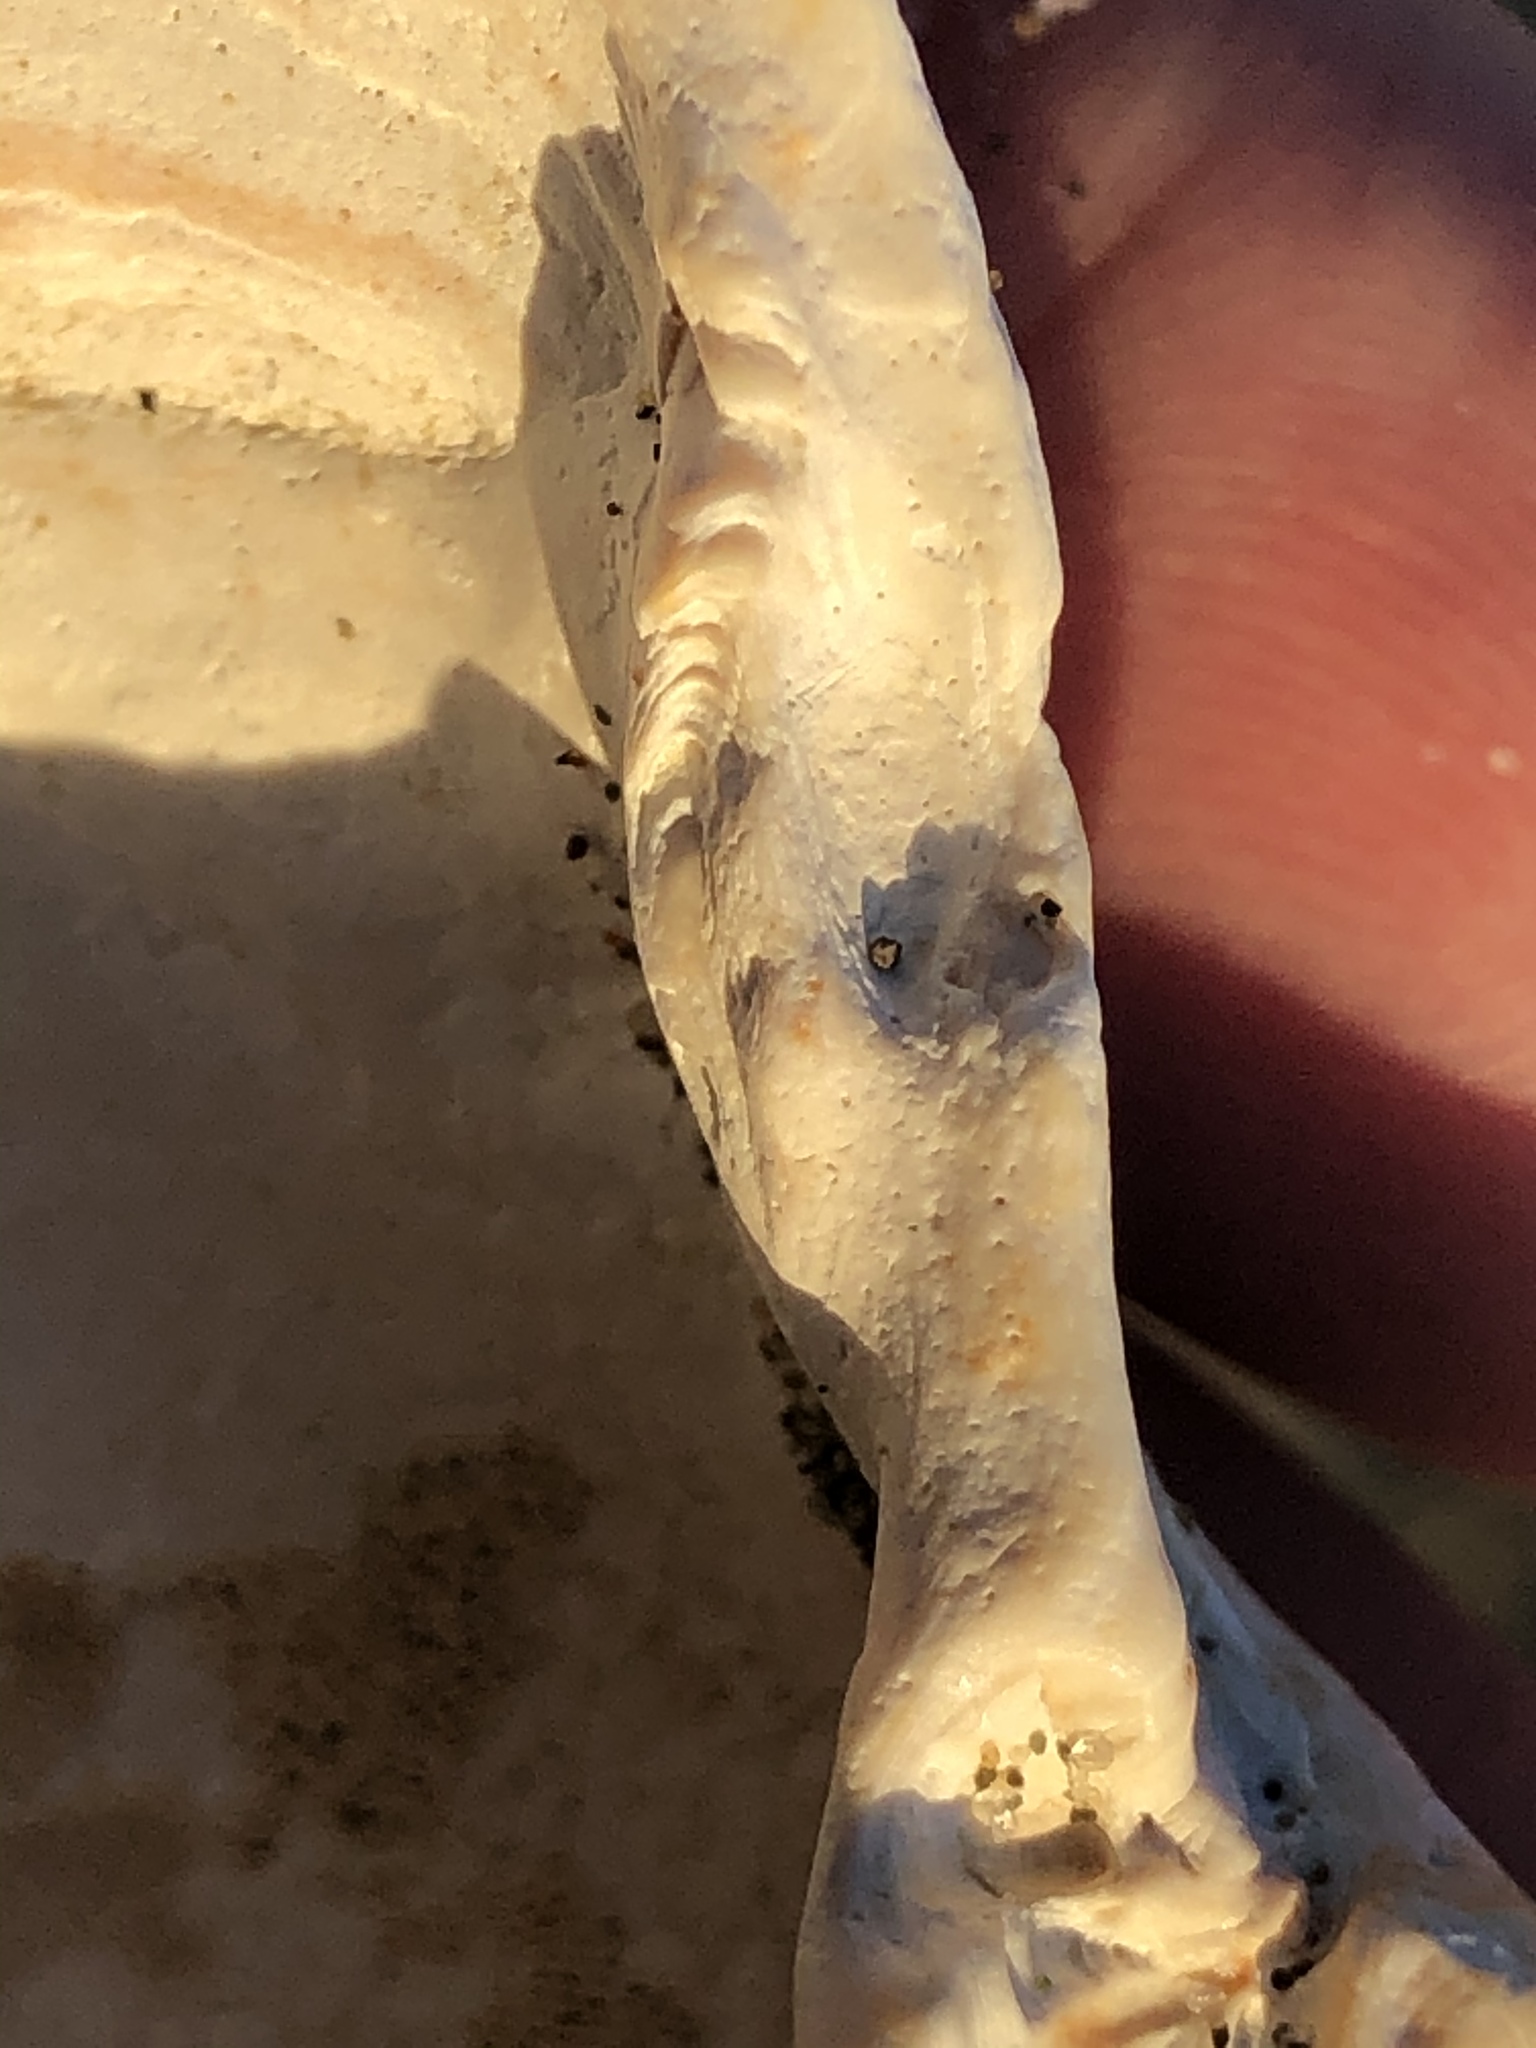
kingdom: Animalia
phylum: Mollusca
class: Bivalvia
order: Cardiida
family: Cardiidae
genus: Clinocardium
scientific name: Clinocardium nuttallii
